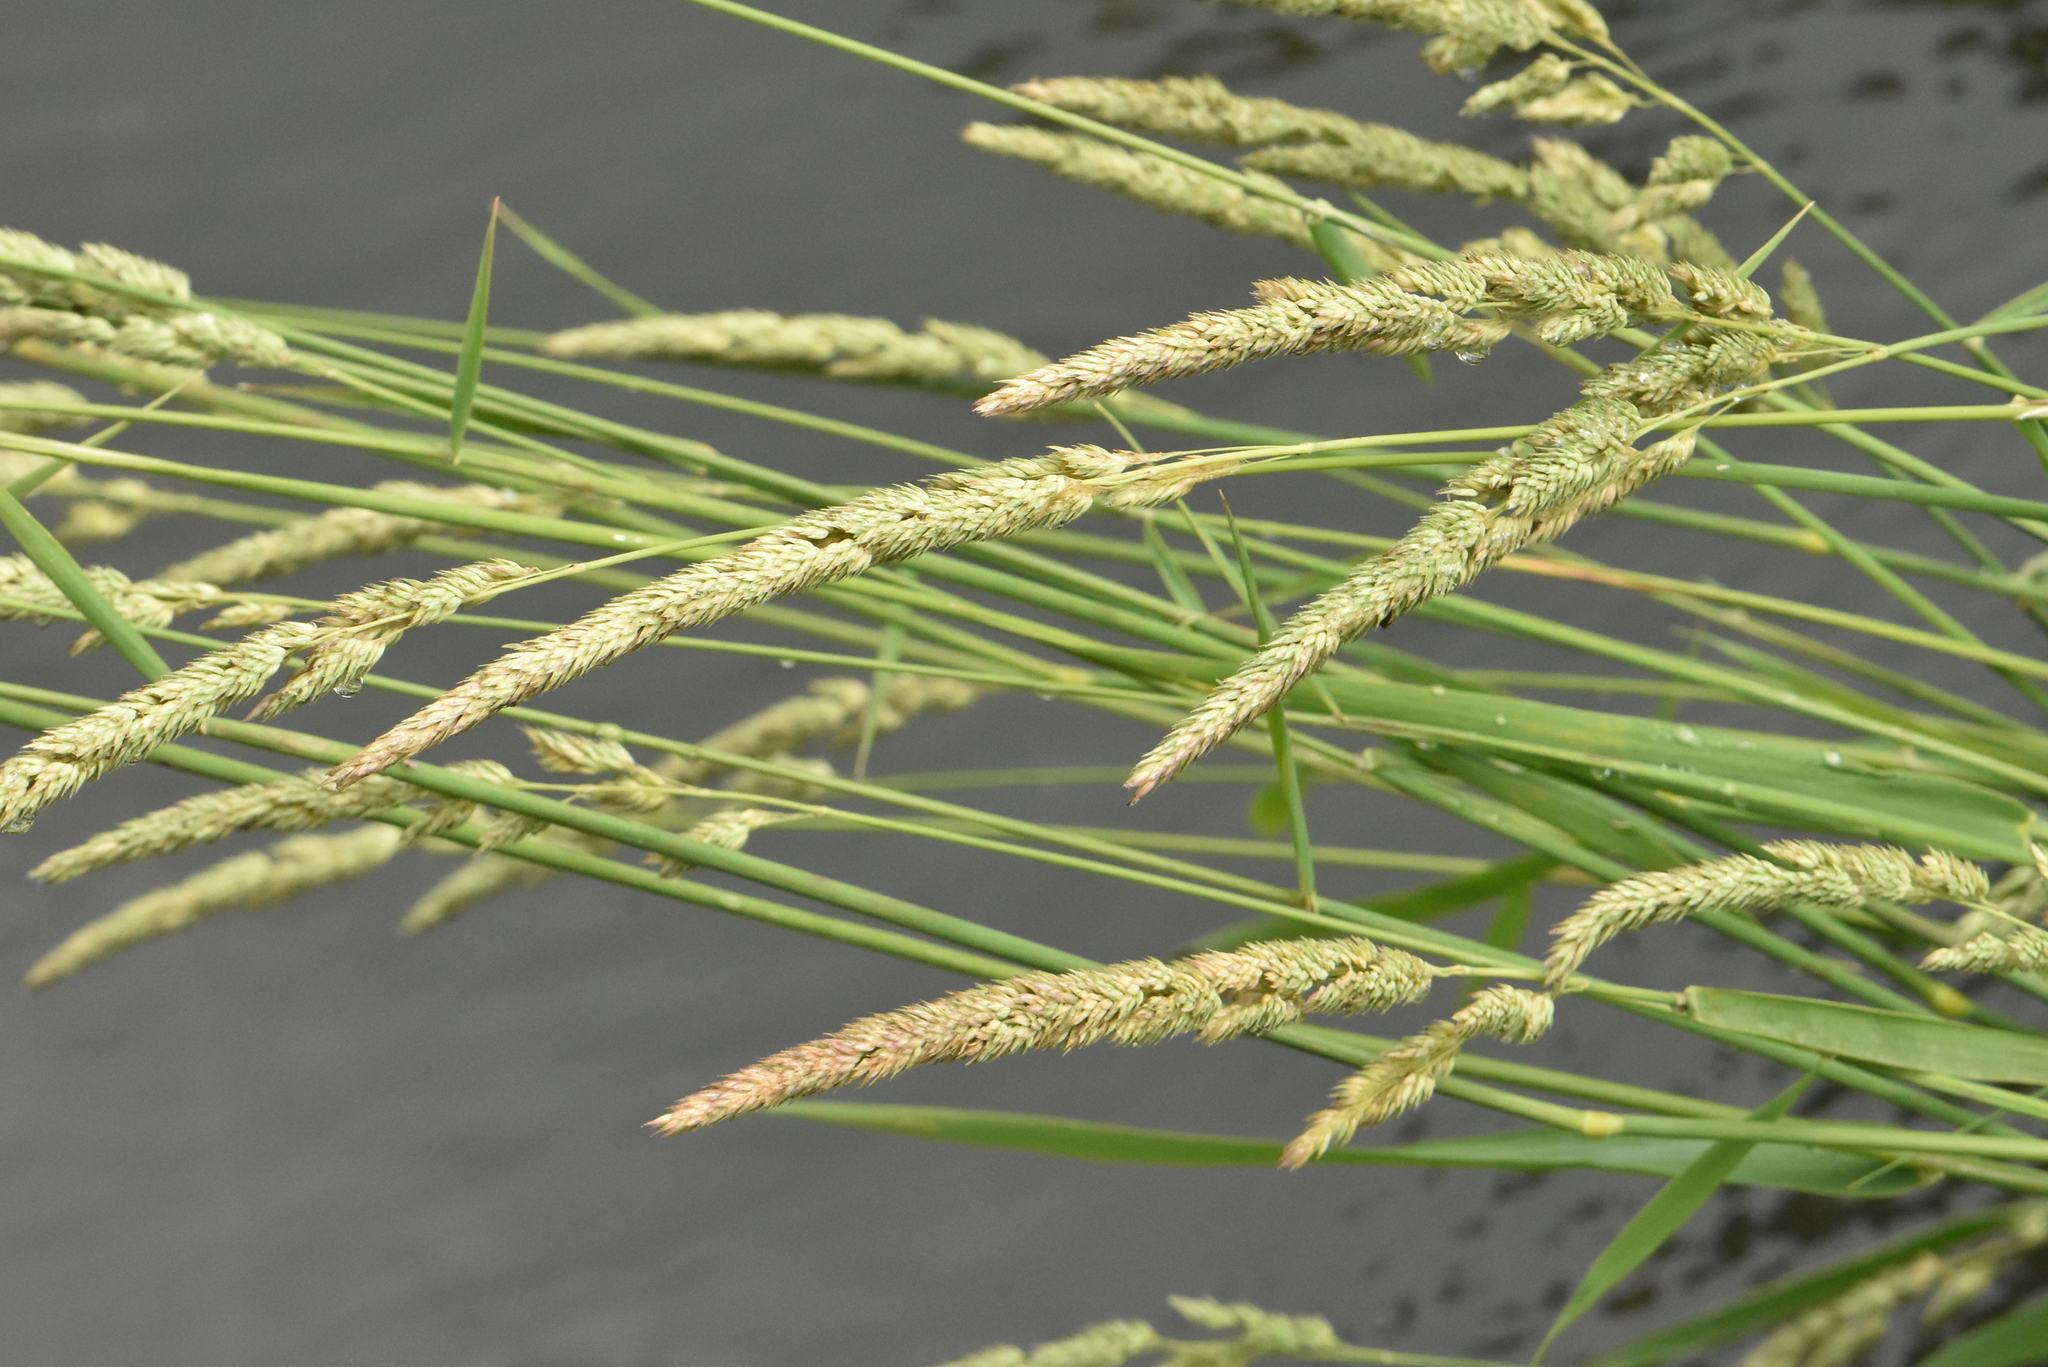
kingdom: Plantae
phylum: Tracheophyta
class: Liliopsida
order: Poales
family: Poaceae
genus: Phalaris
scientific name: Phalaris arundinacea
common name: Reed canary-grass
